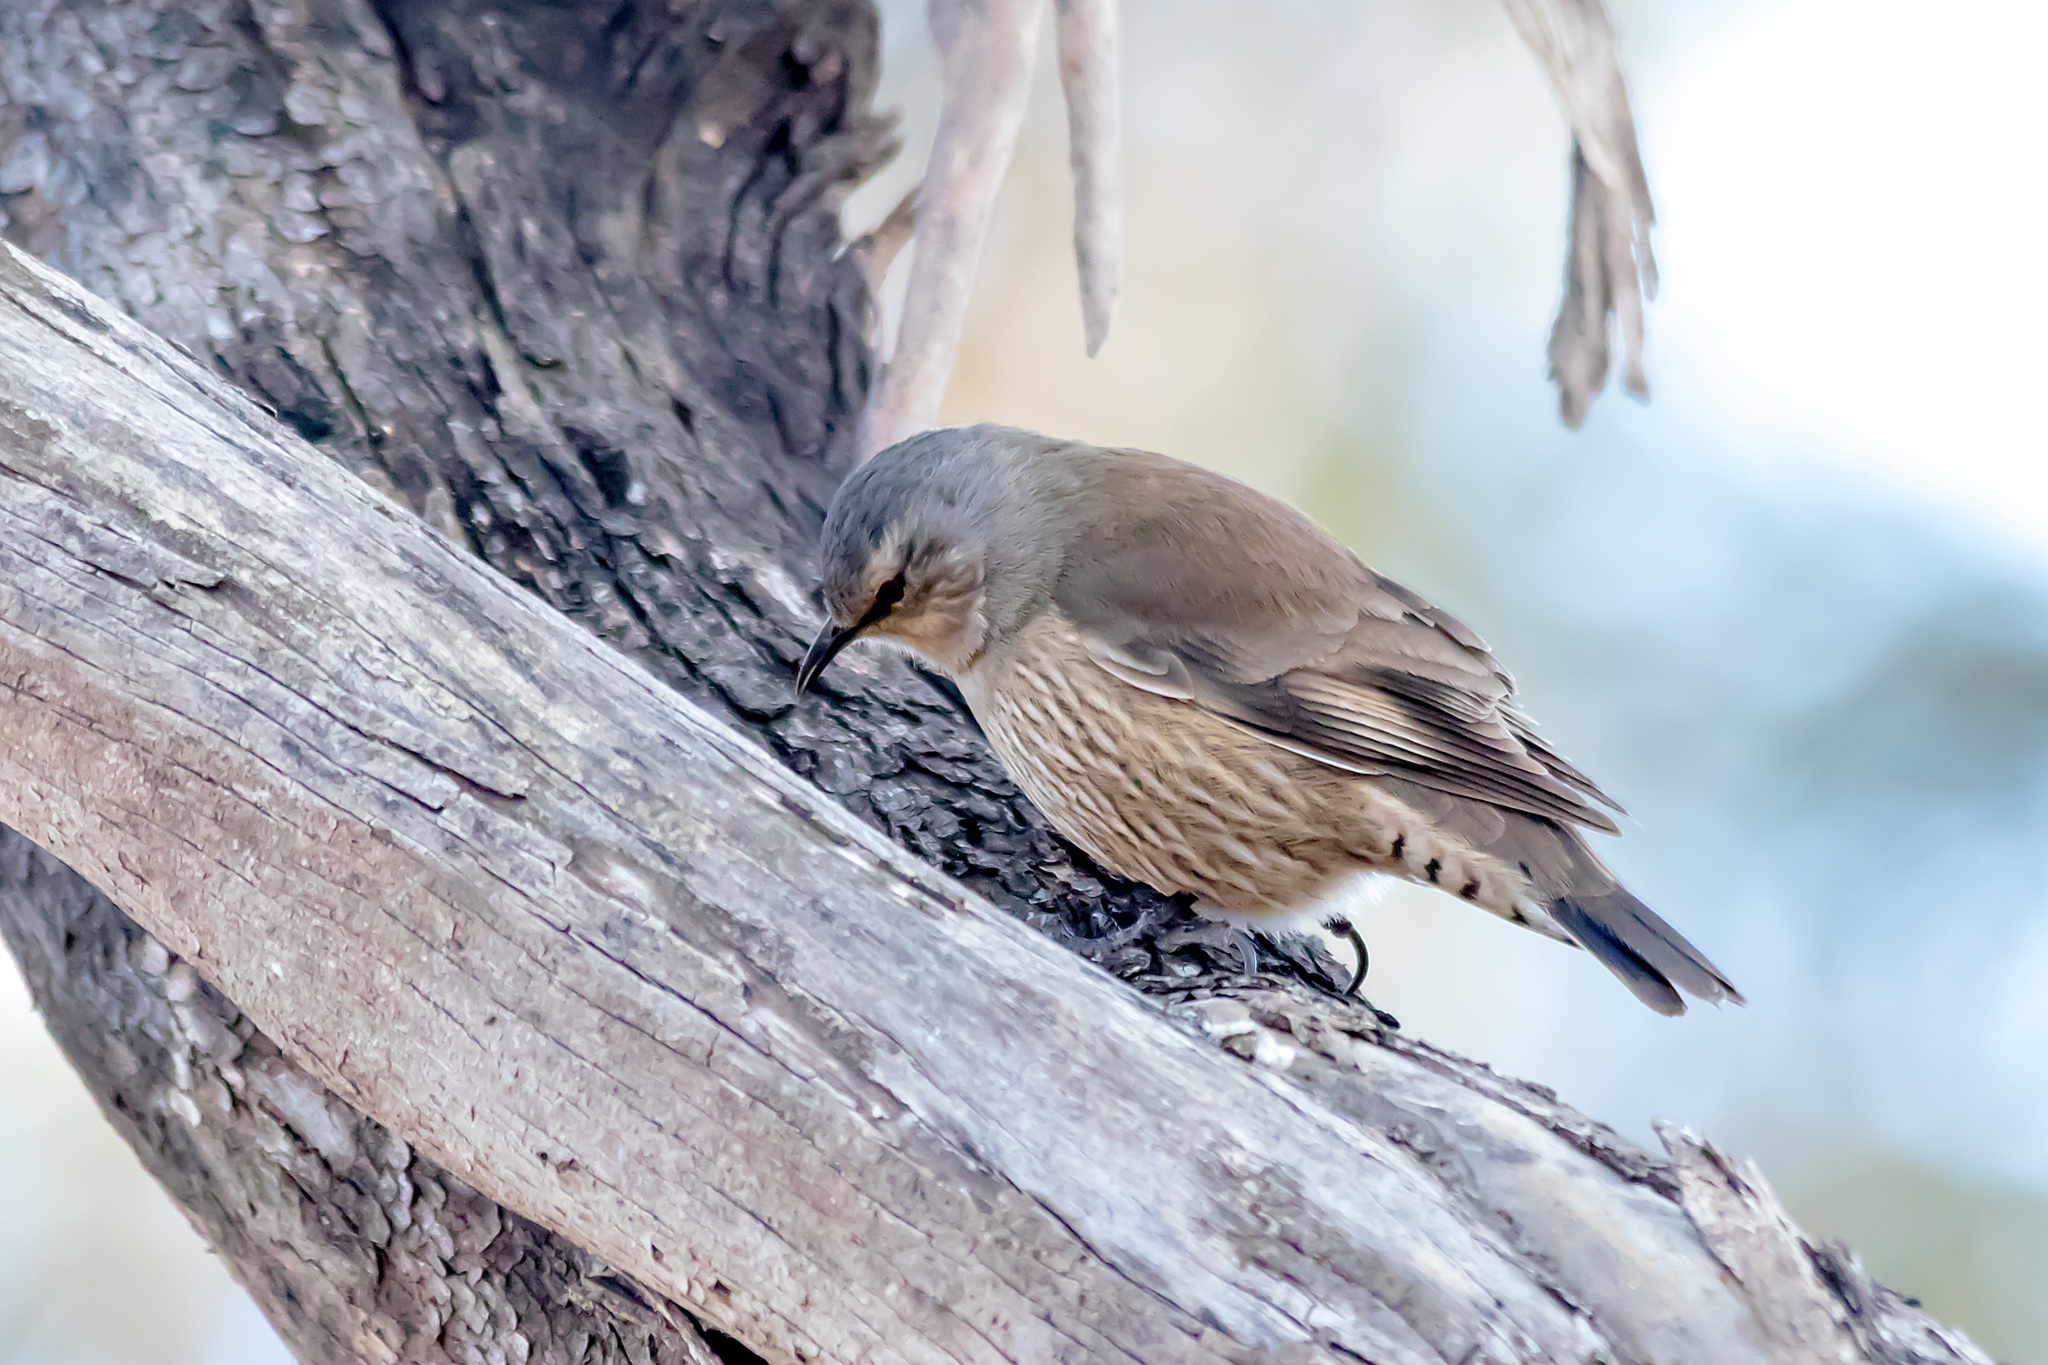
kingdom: Animalia
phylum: Chordata
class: Aves
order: Passeriformes
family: Climacteridae
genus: Climacteris
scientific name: Climacteris picumnus
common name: Brown treecreeper
